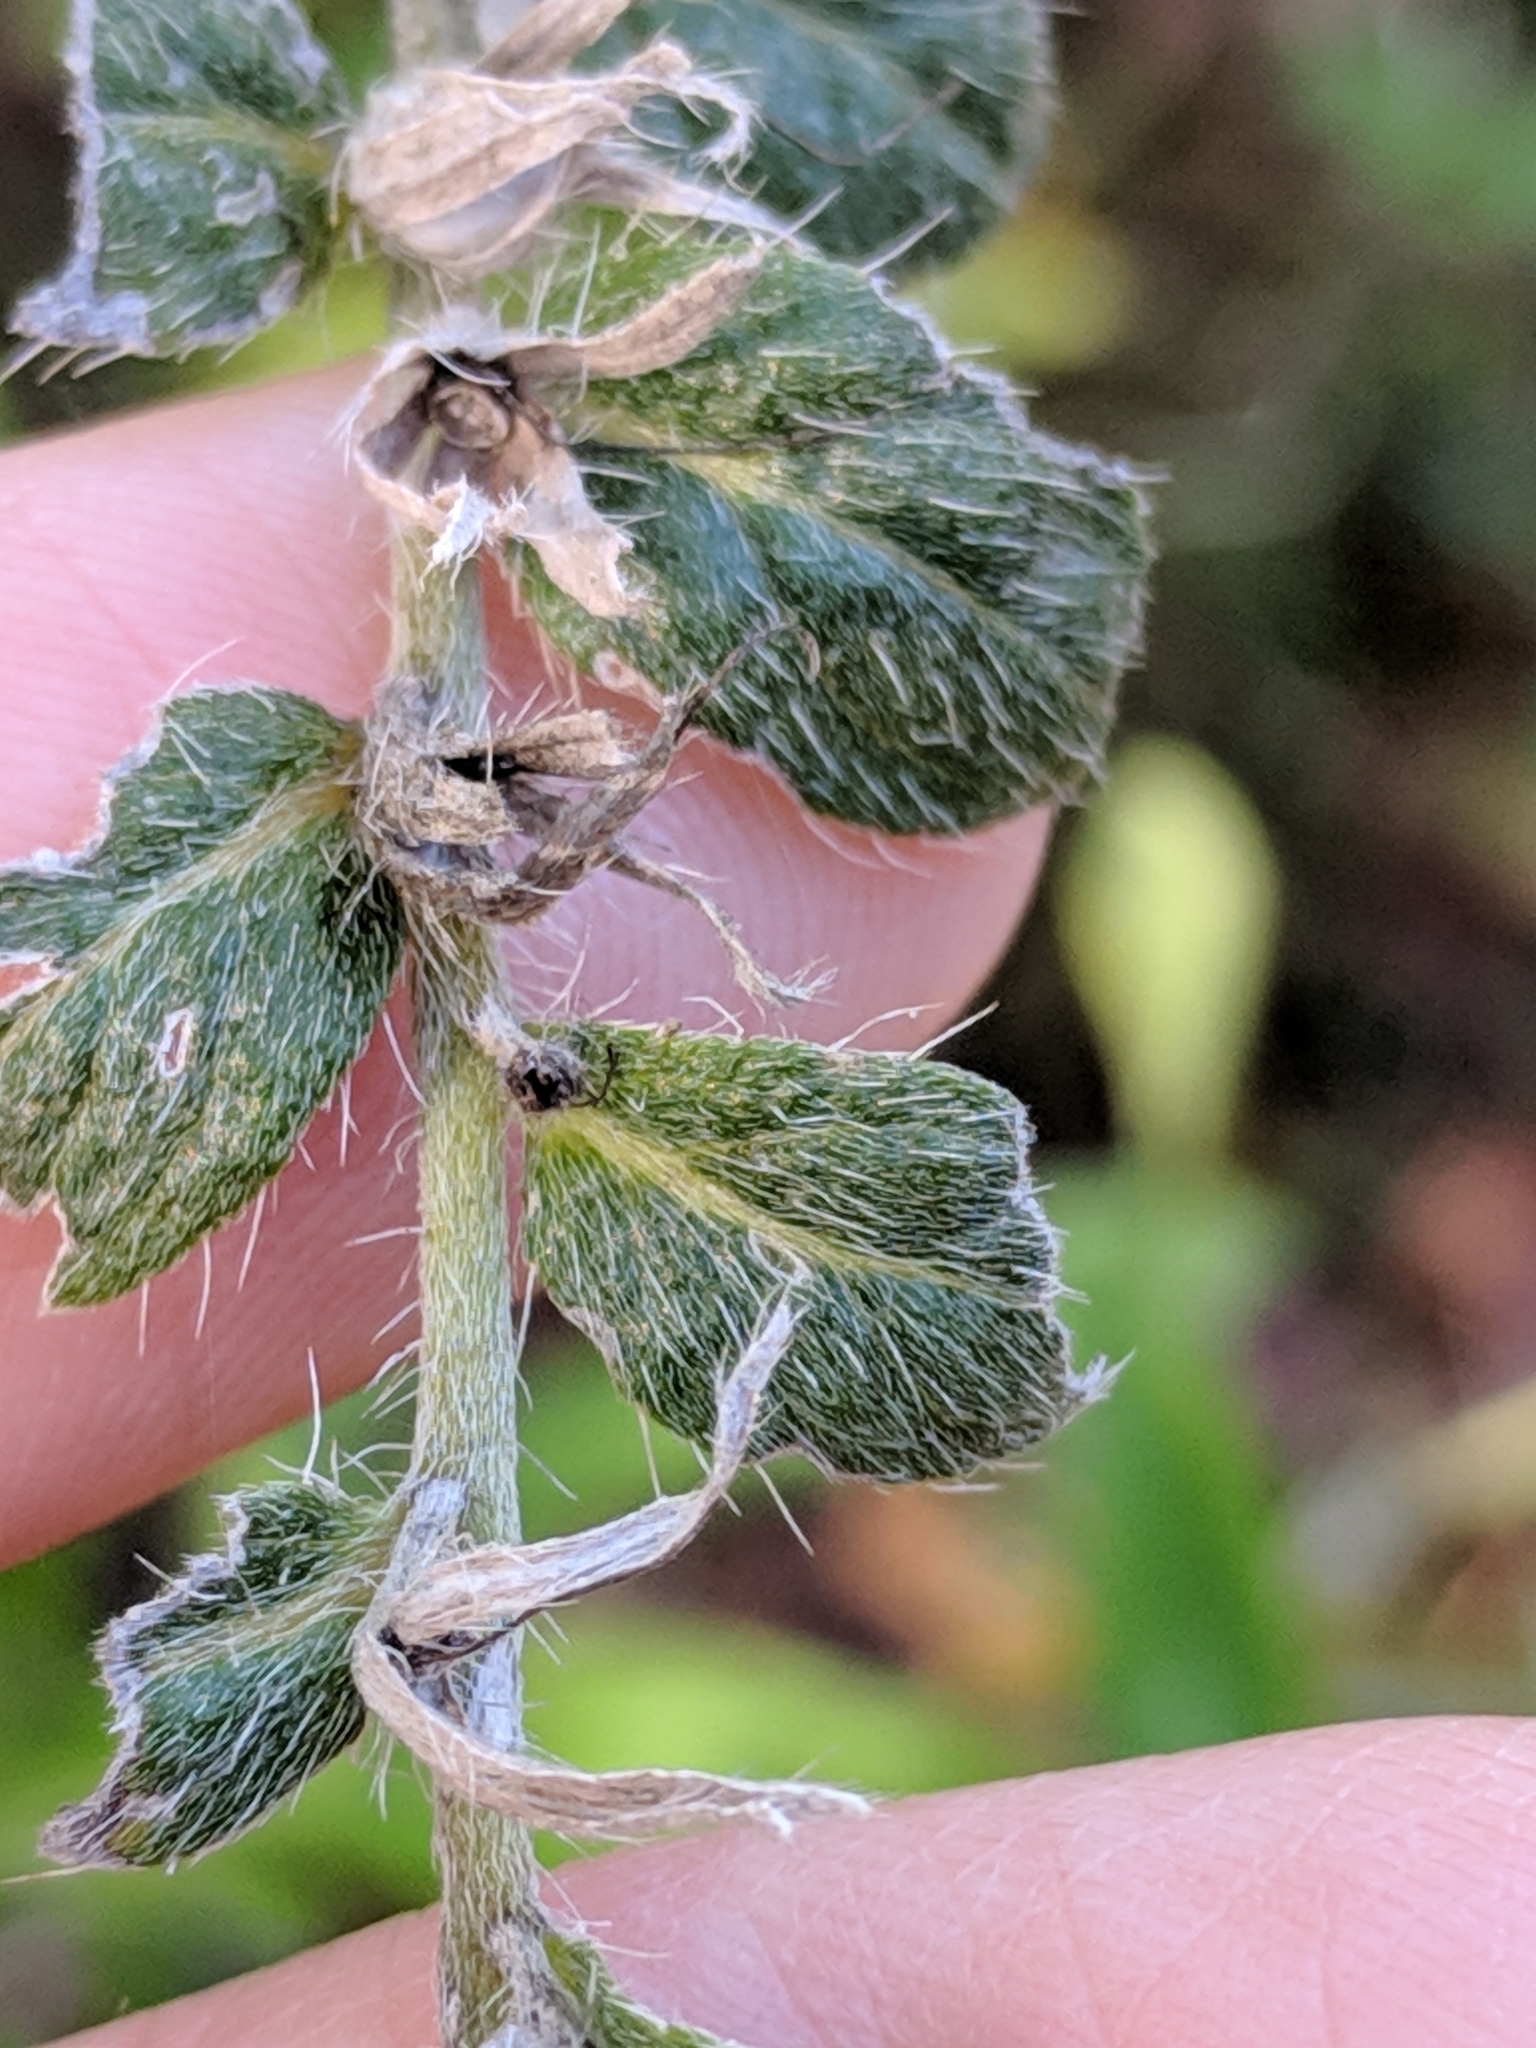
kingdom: Plantae
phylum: Tracheophyta
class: Magnoliopsida
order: Boraginales
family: Boraginaceae
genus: Lithospermum
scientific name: Lithospermum caroliniense
